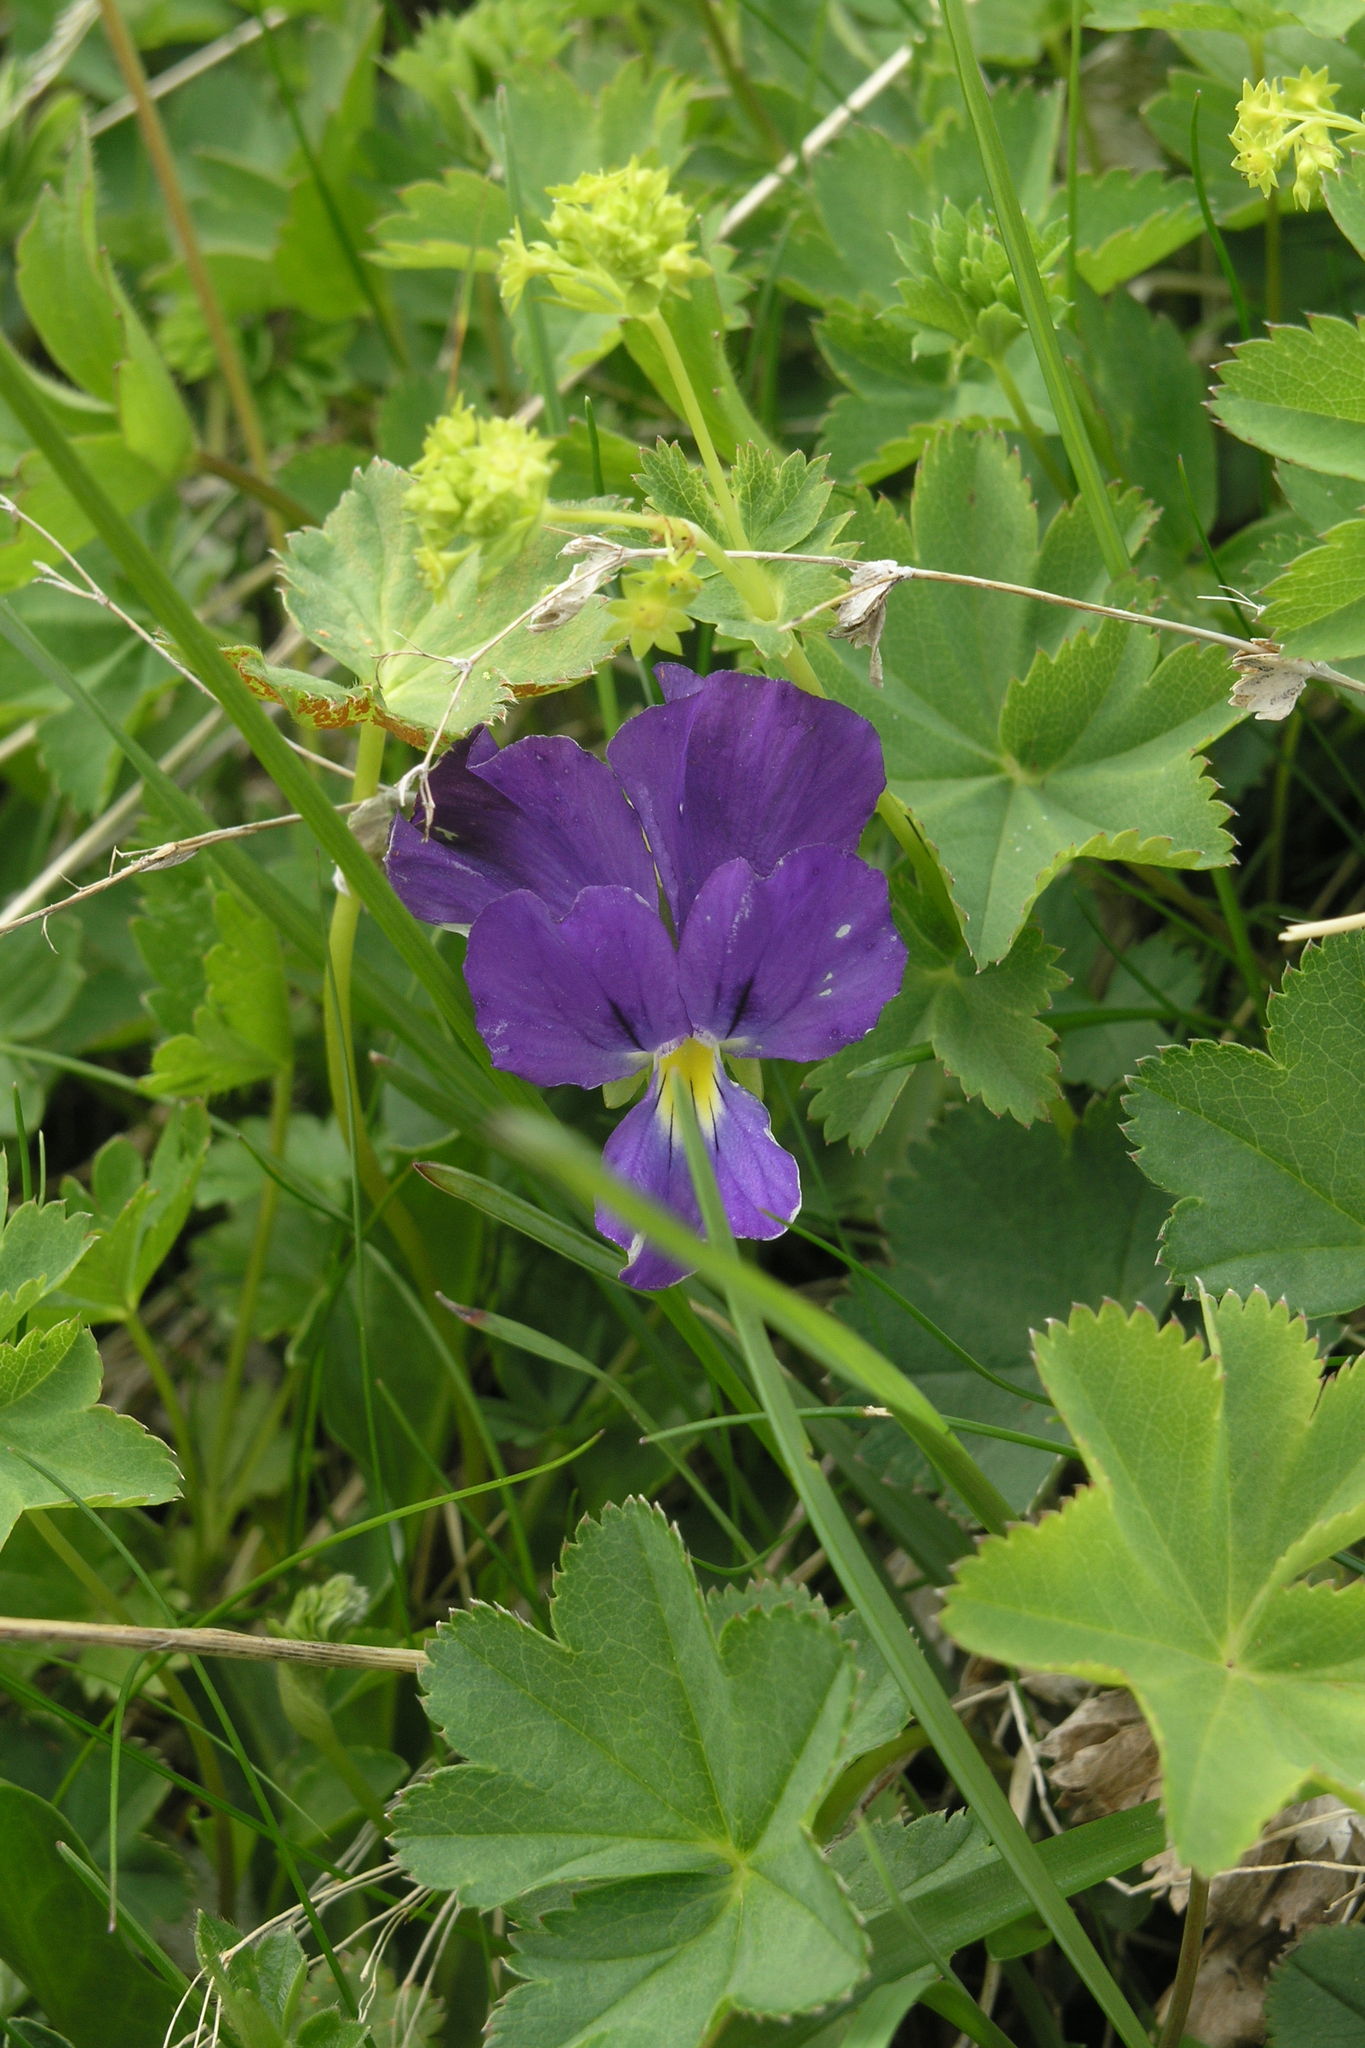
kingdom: Plantae
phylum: Tracheophyta
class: Magnoliopsida
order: Malpighiales
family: Violaceae
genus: Viola
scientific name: Viola oreades
